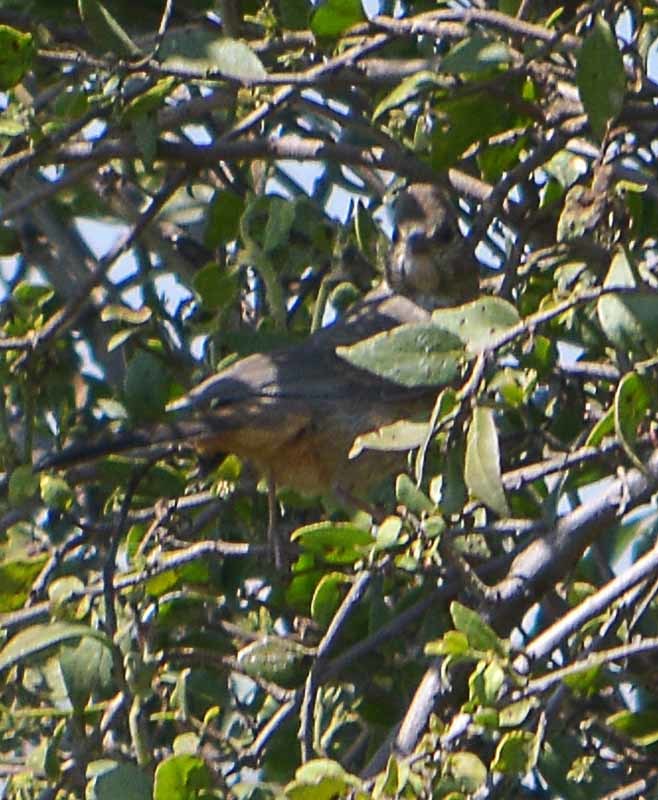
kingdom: Animalia
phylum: Chordata
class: Aves
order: Passeriformes
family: Passerellidae
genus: Melozone
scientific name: Melozone fusca
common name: Canyon towhee
